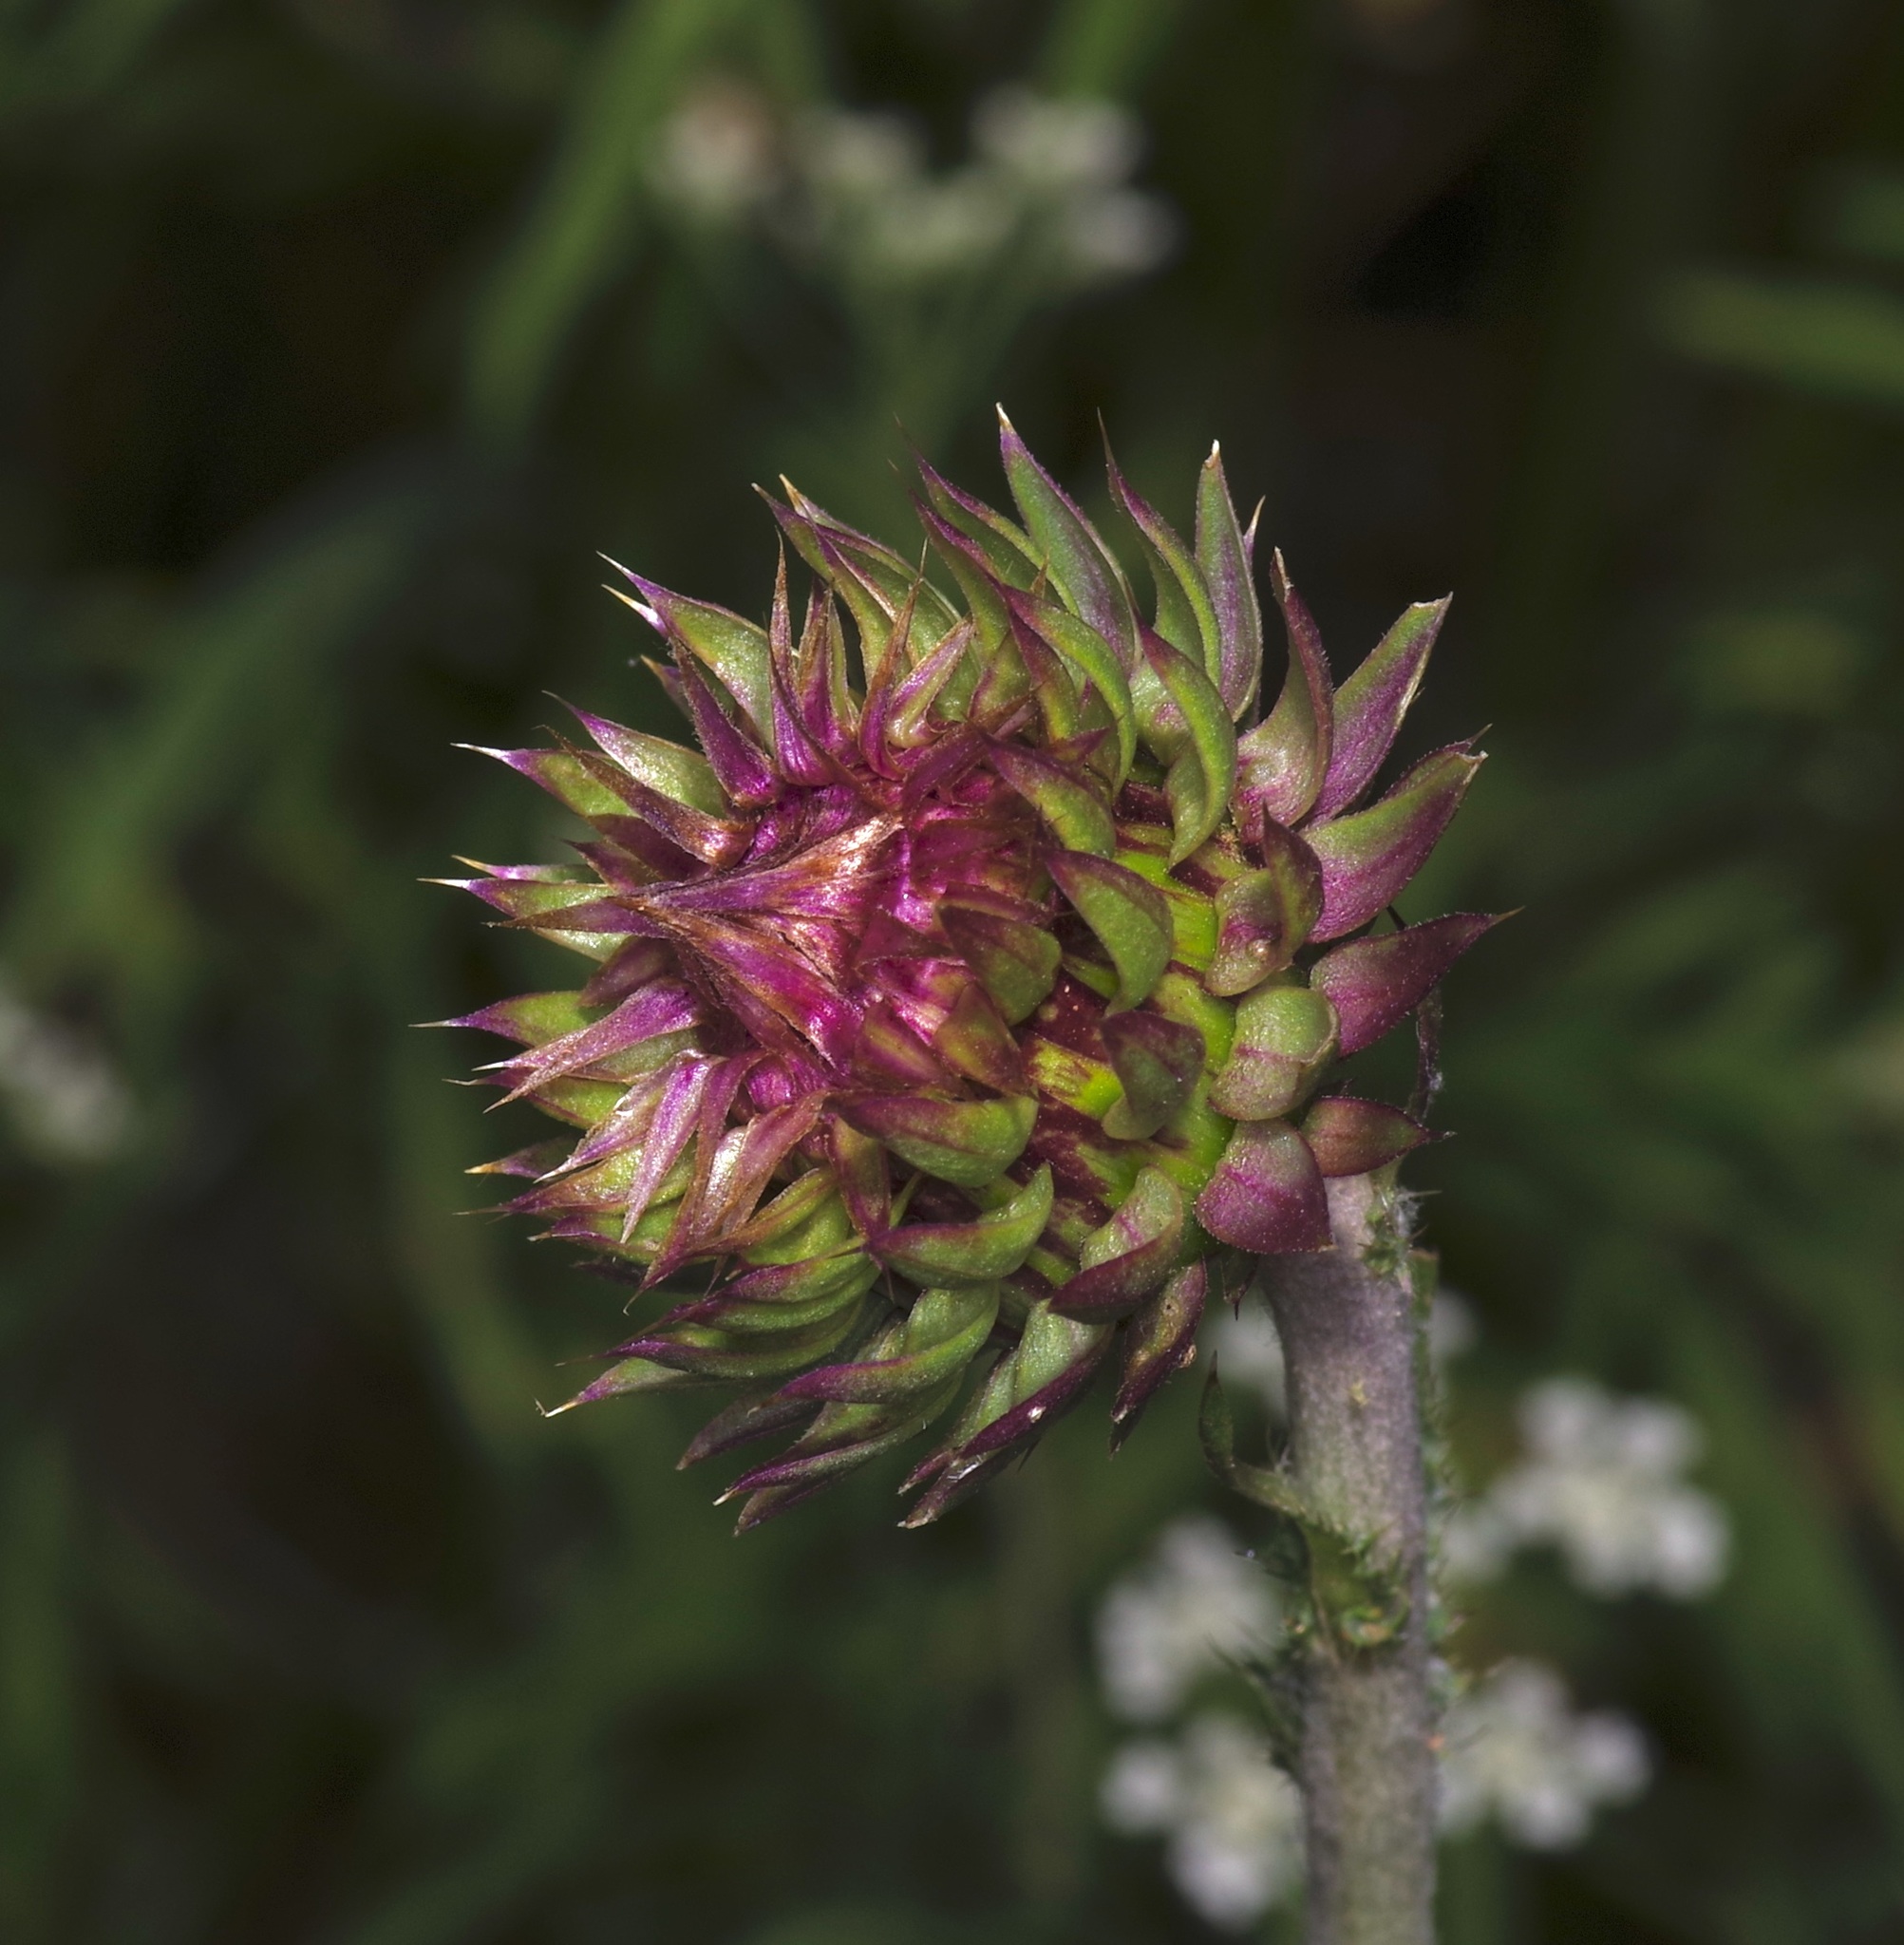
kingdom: Plantae
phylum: Tracheophyta
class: Magnoliopsida
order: Asterales
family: Asteraceae
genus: Carduus
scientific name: Carduus nutans
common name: Musk thistle
